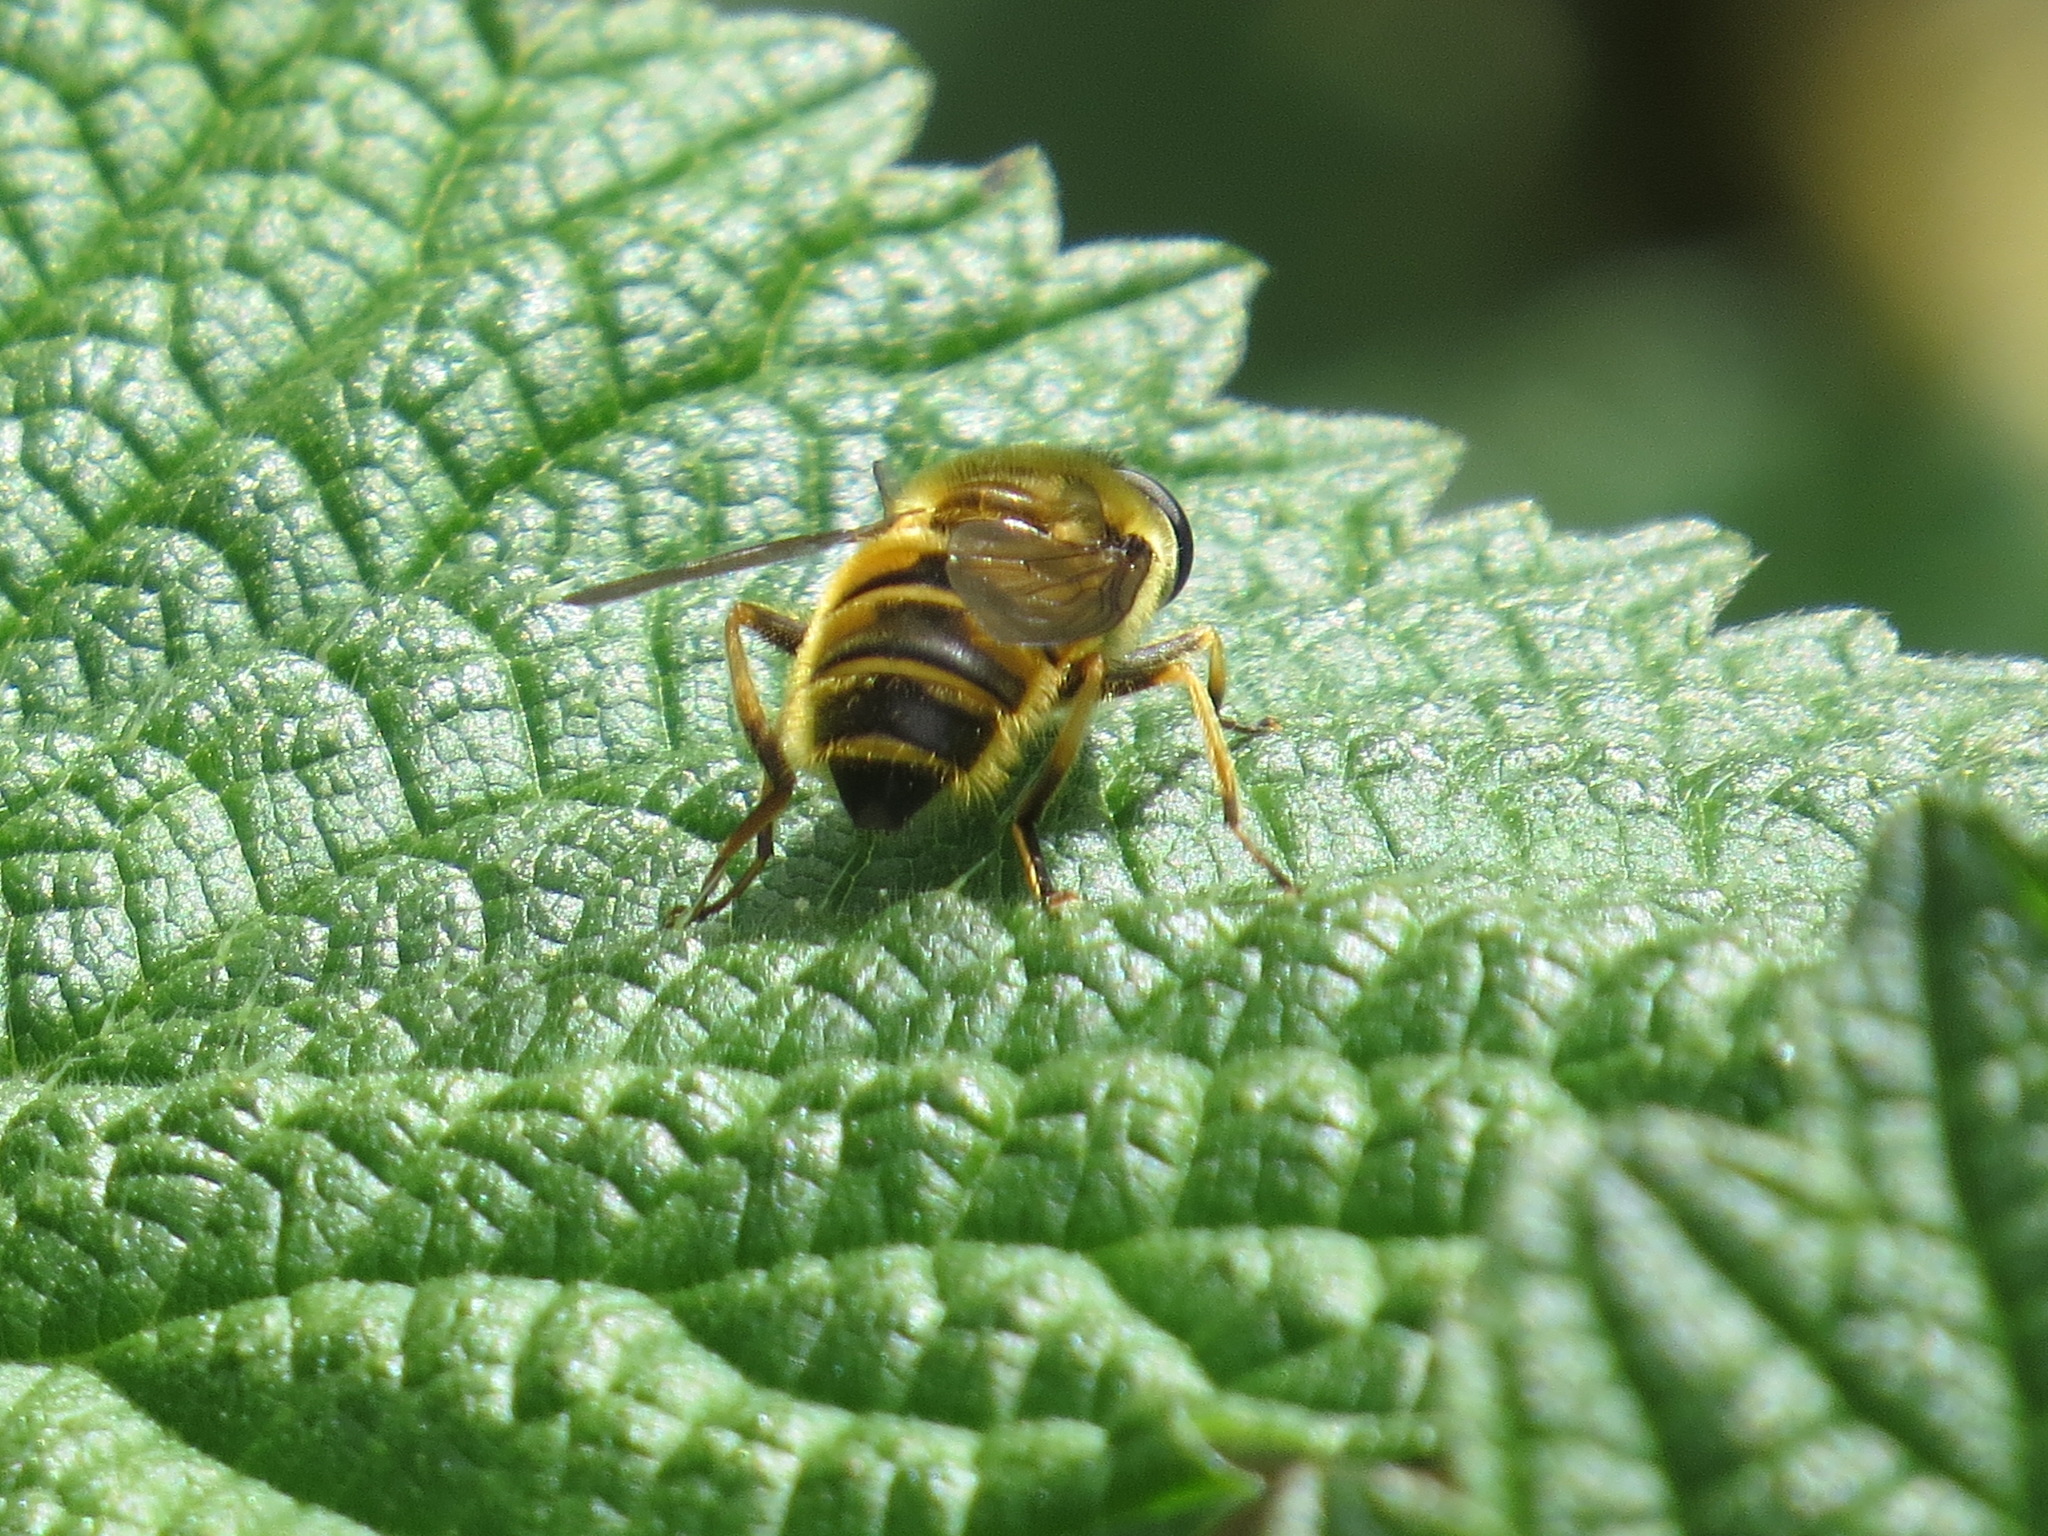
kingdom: Animalia
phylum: Arthropoda
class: Insecta
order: Diptera
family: Syrphidae
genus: Helophilus
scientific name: Helophilus fasciatus
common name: Narrow-headed marsh fly
